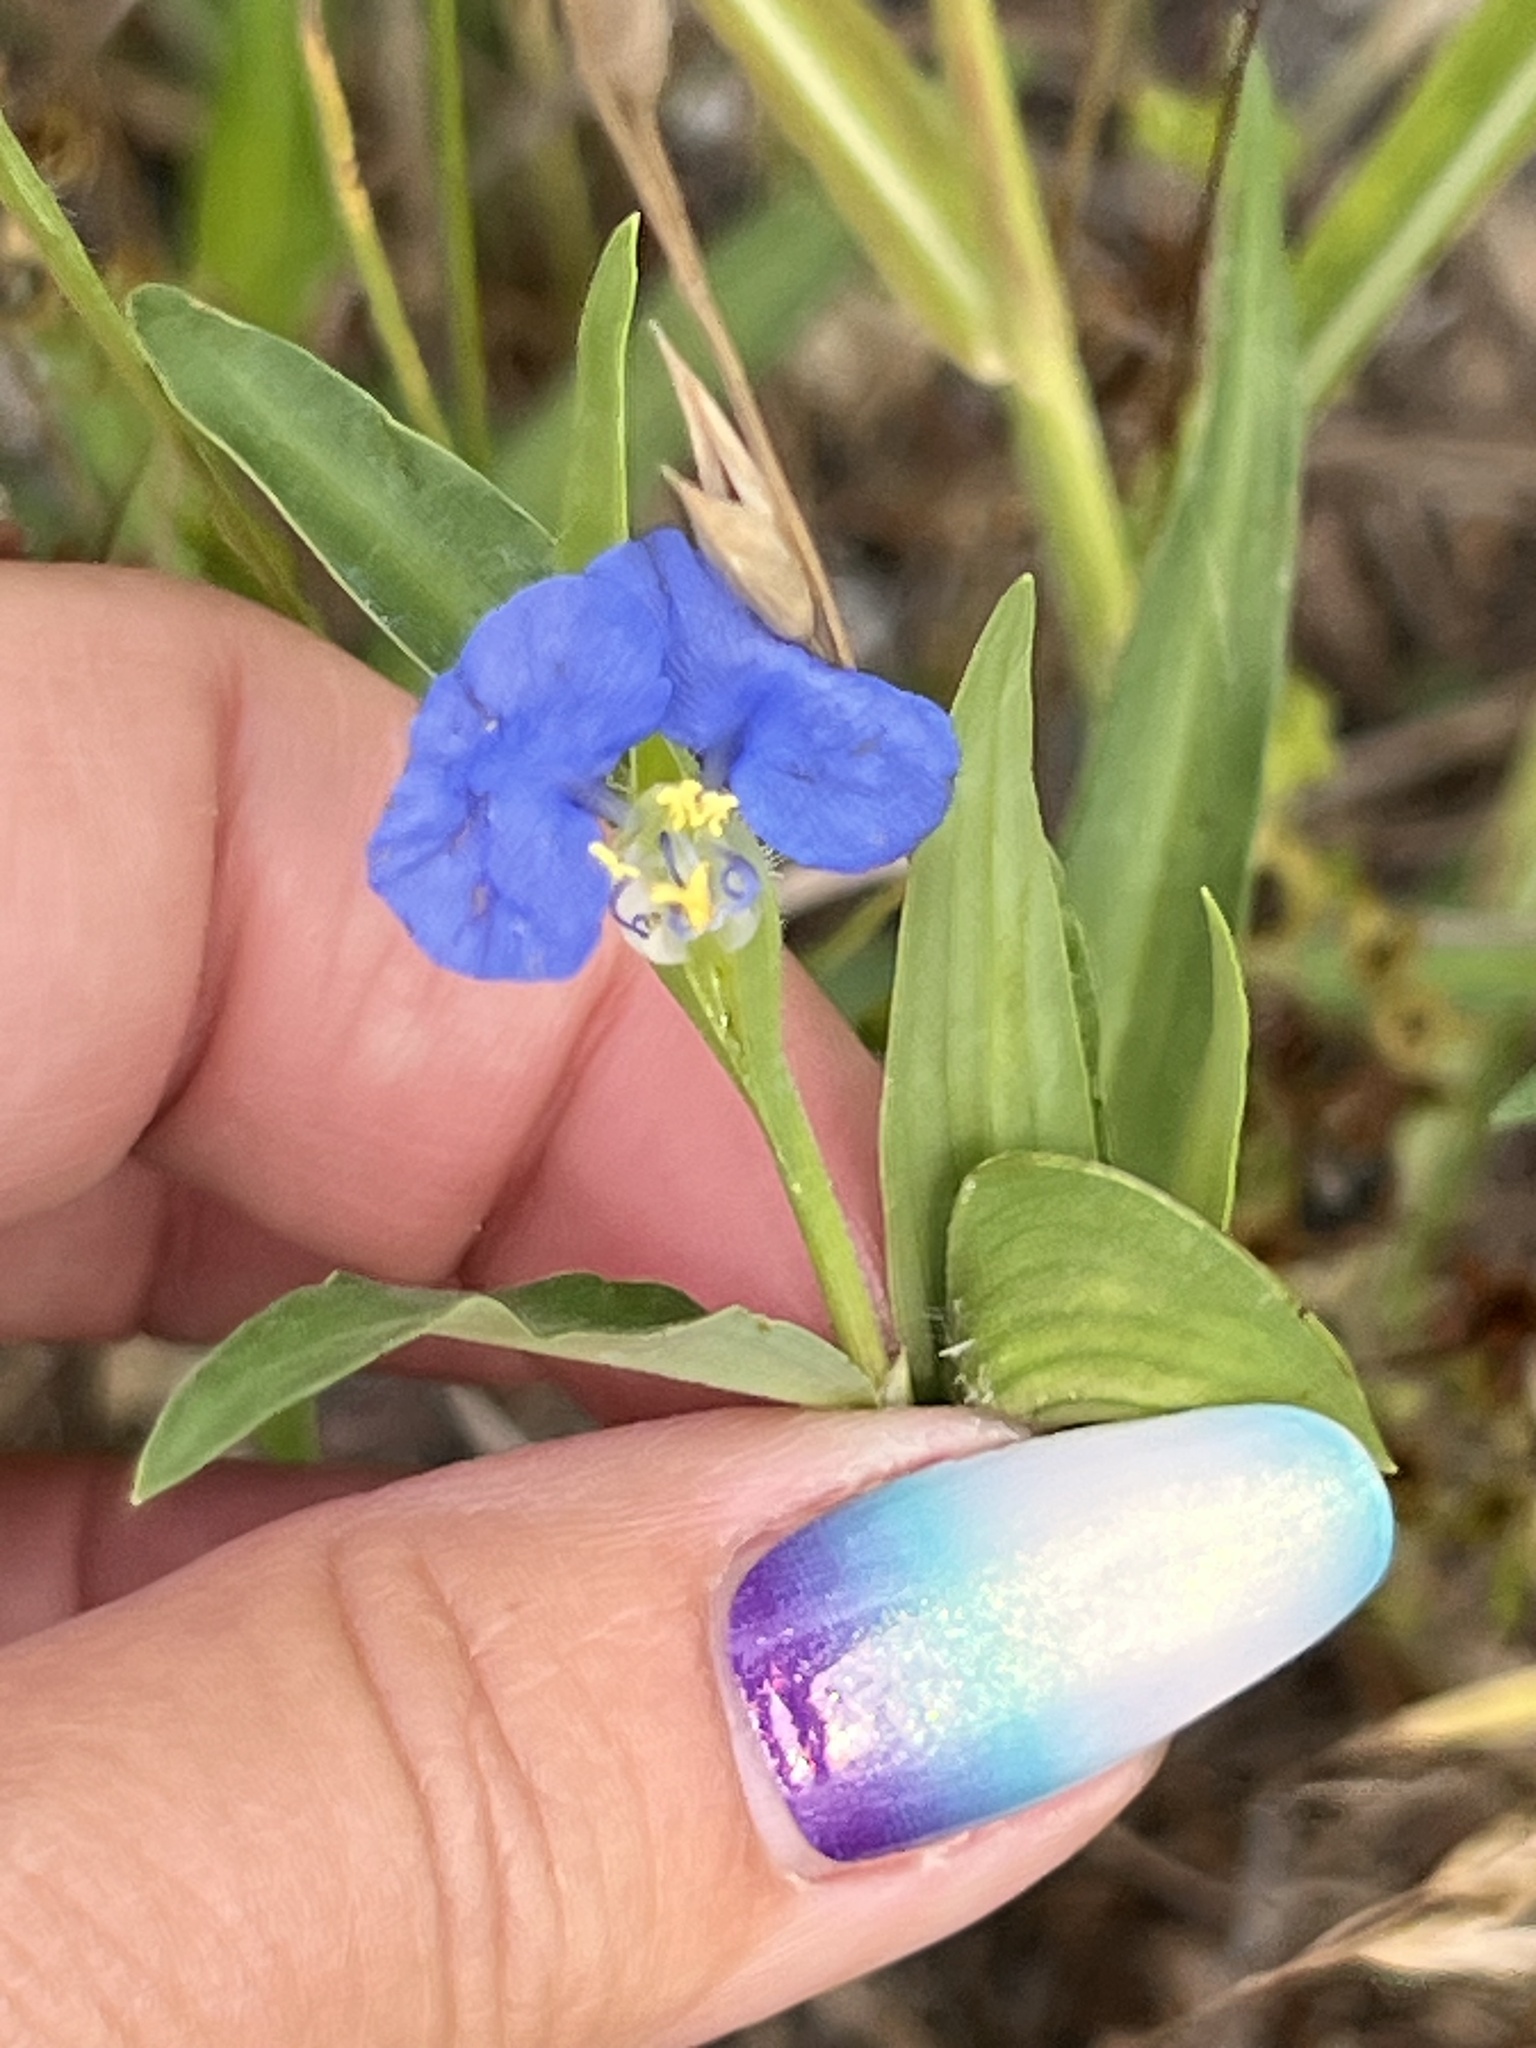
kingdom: Plantae
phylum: Tracheophyta
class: Liliopsida
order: Commelinales
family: Commelinaceae
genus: Commelina
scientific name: Commelina erecta
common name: Blousel blommetjie
